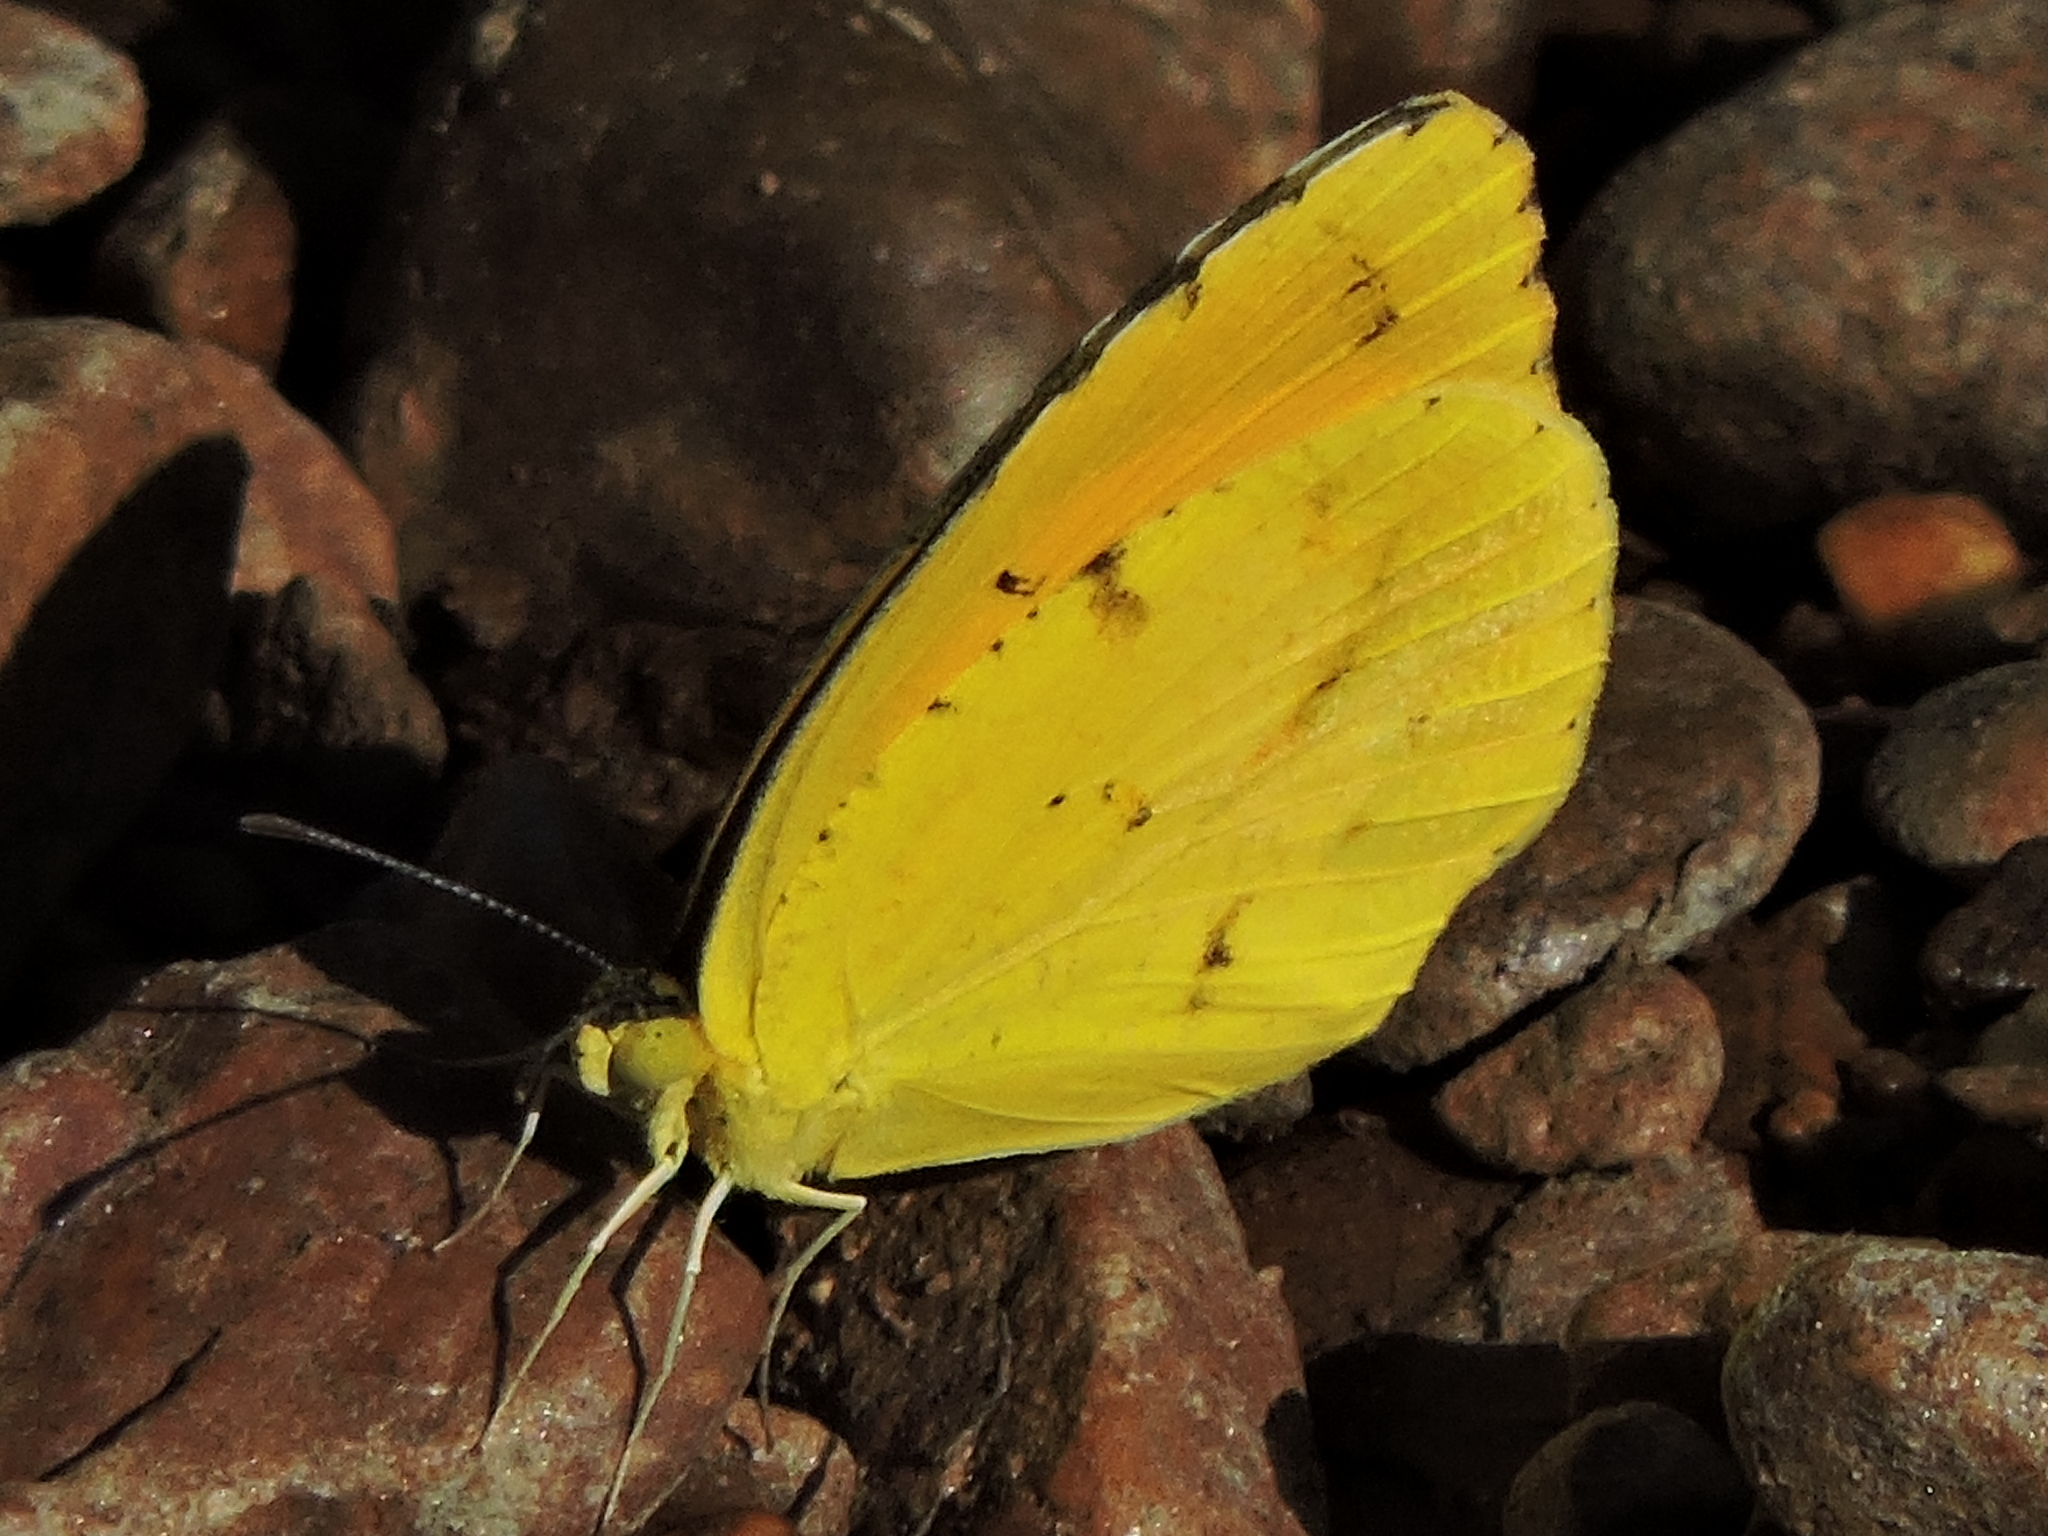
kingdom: Animalia
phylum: Arthropoda
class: Insecta
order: Lepidoptera
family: Pieridae
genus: Abaeis
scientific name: Abaeis nicippe
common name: Sleepy orange
